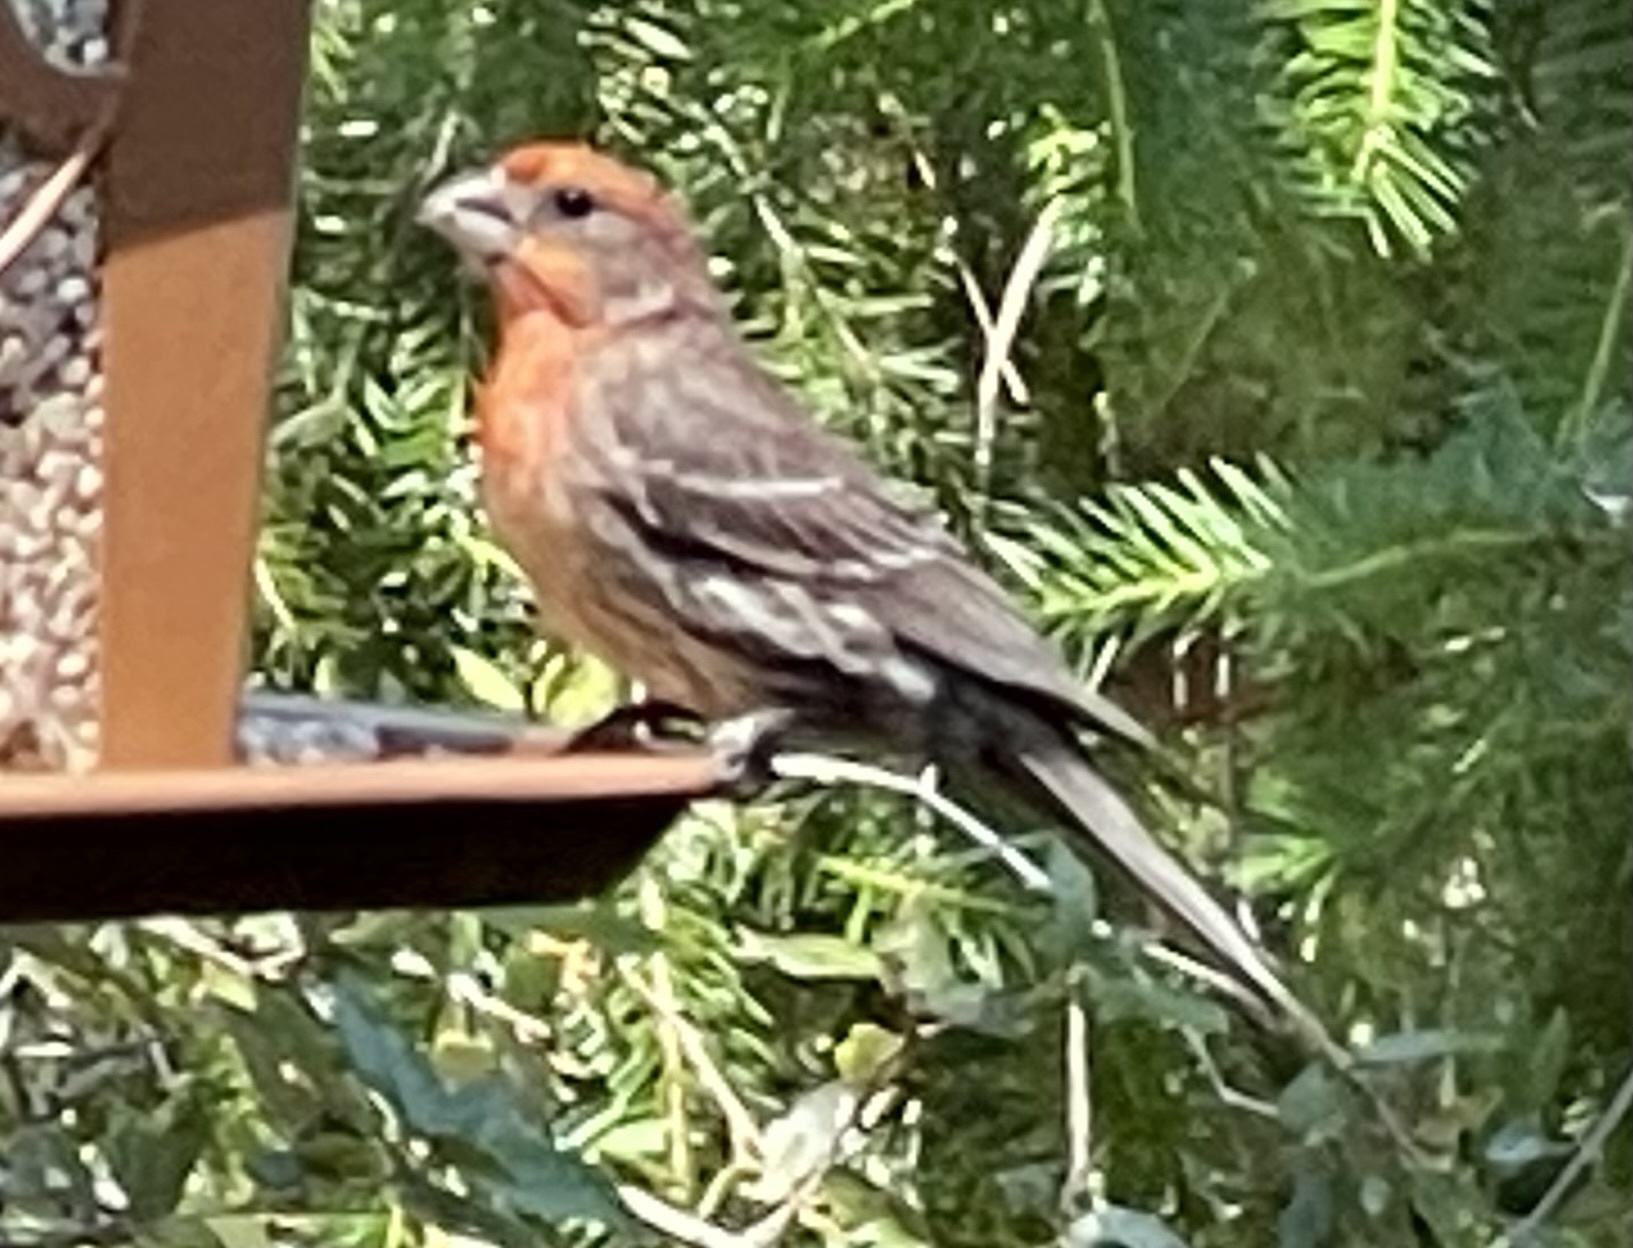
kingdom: Animalia
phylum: Chordata
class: Aves
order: Passeriformes
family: Fringillidae
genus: Haemorhous
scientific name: Haemorhous mexicanus
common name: House finch
